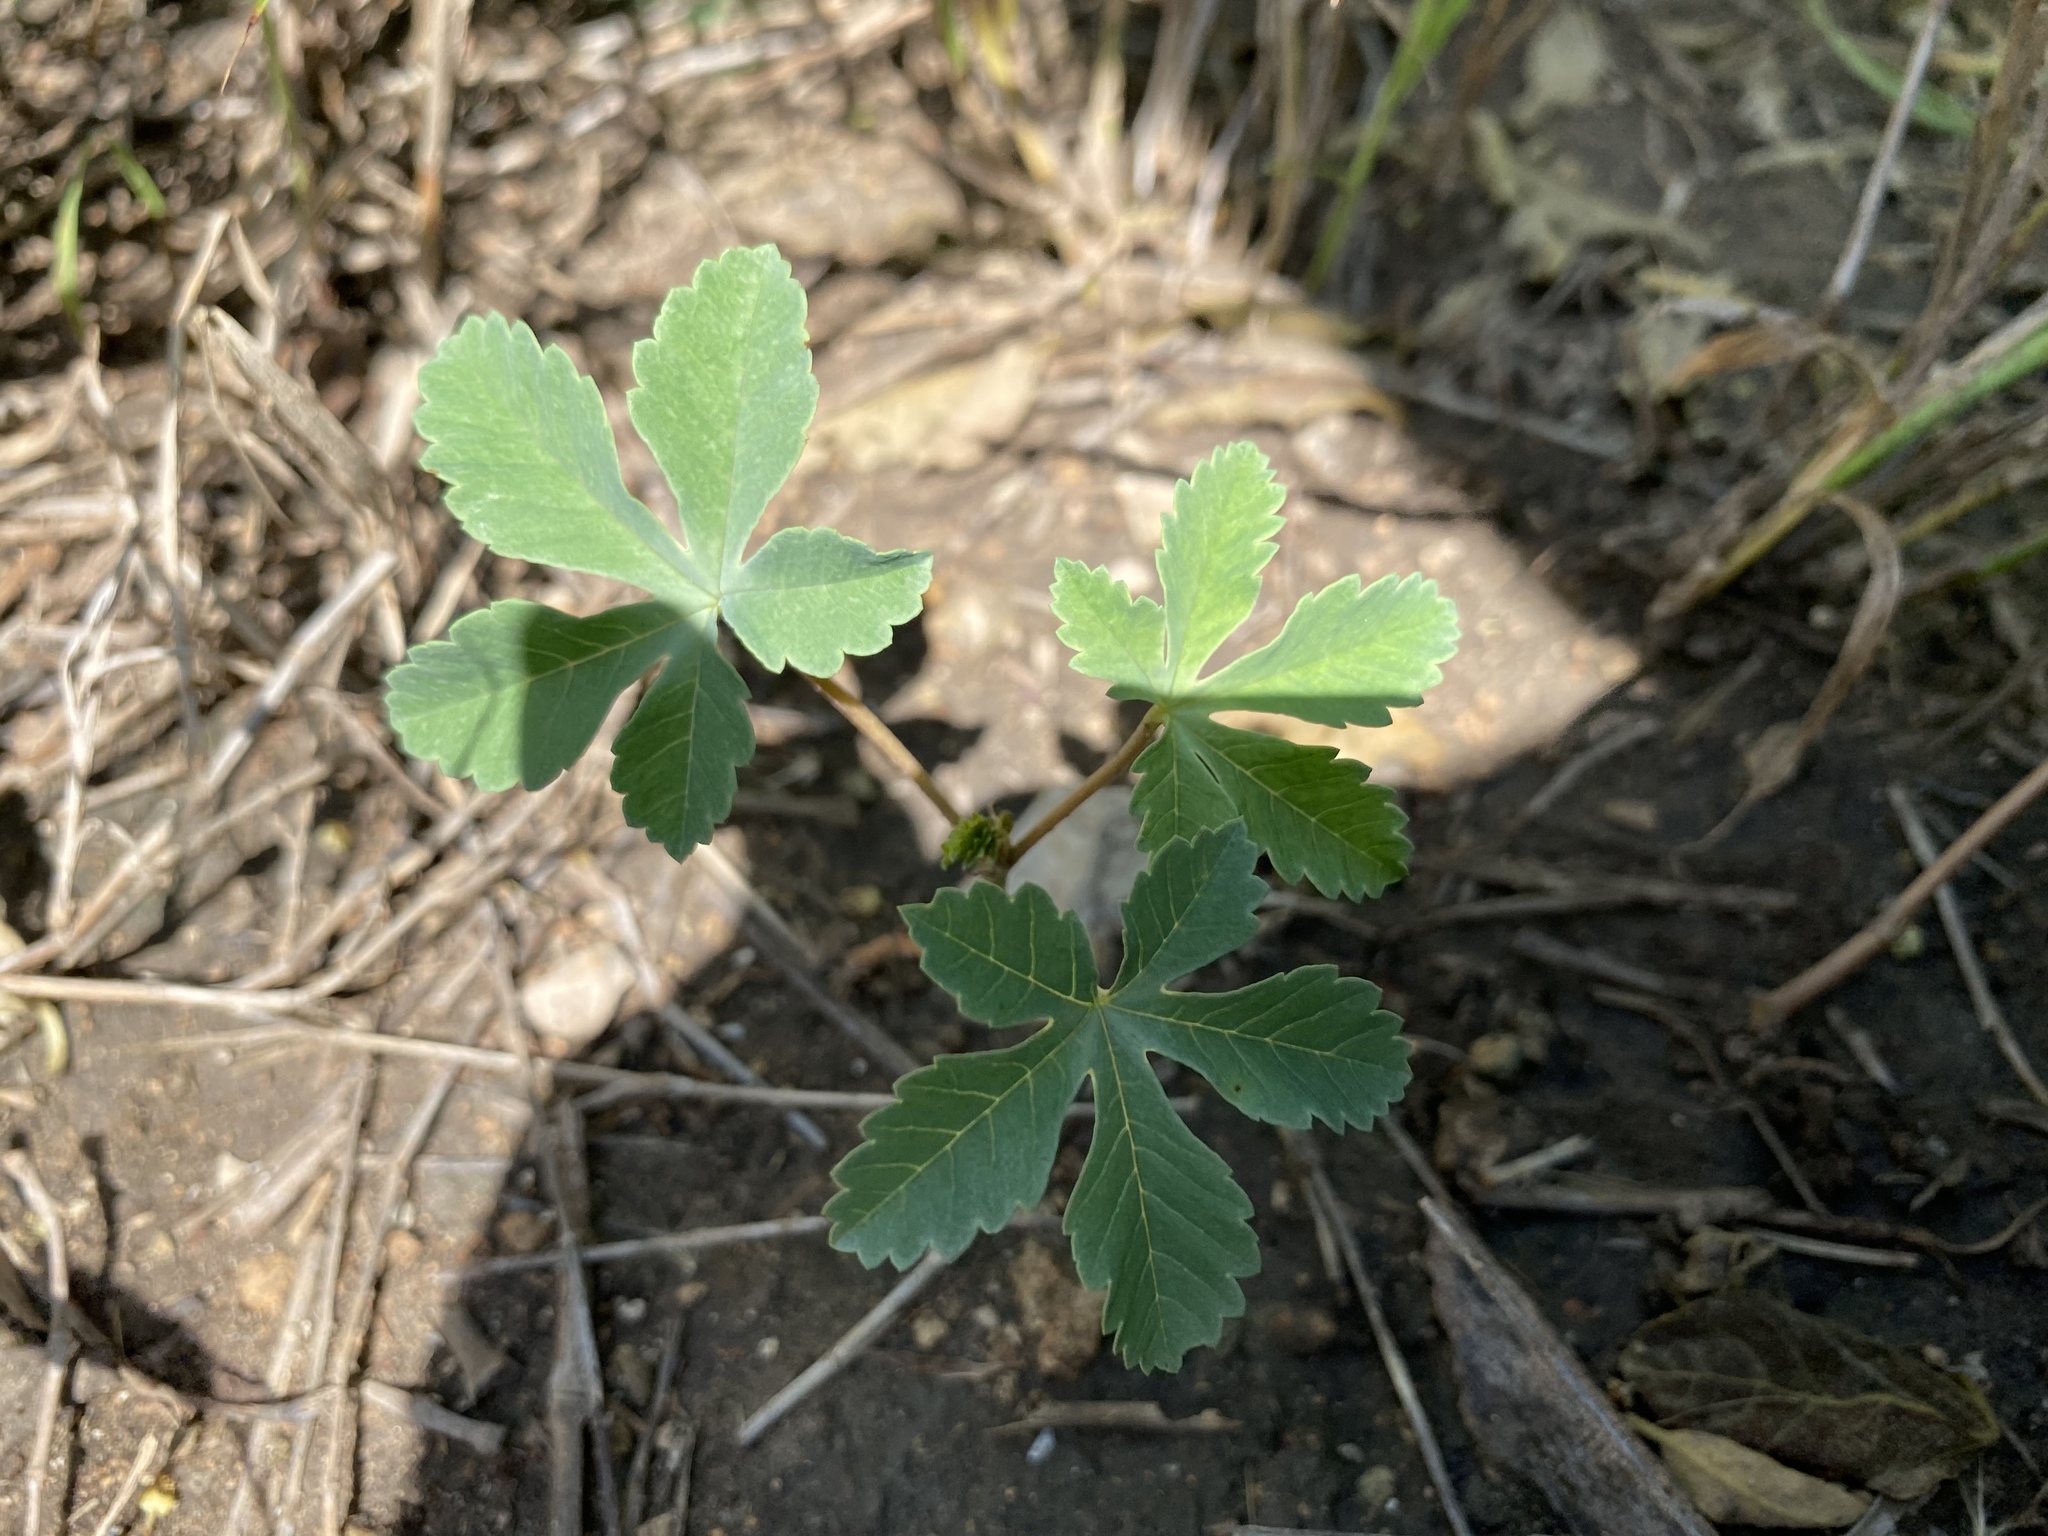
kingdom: Plantae
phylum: Tracheophyta
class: Magnoliopsida
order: Malvales
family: Cochlospermaceae
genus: Cochlospermum
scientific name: Cochlospermum wrightii
